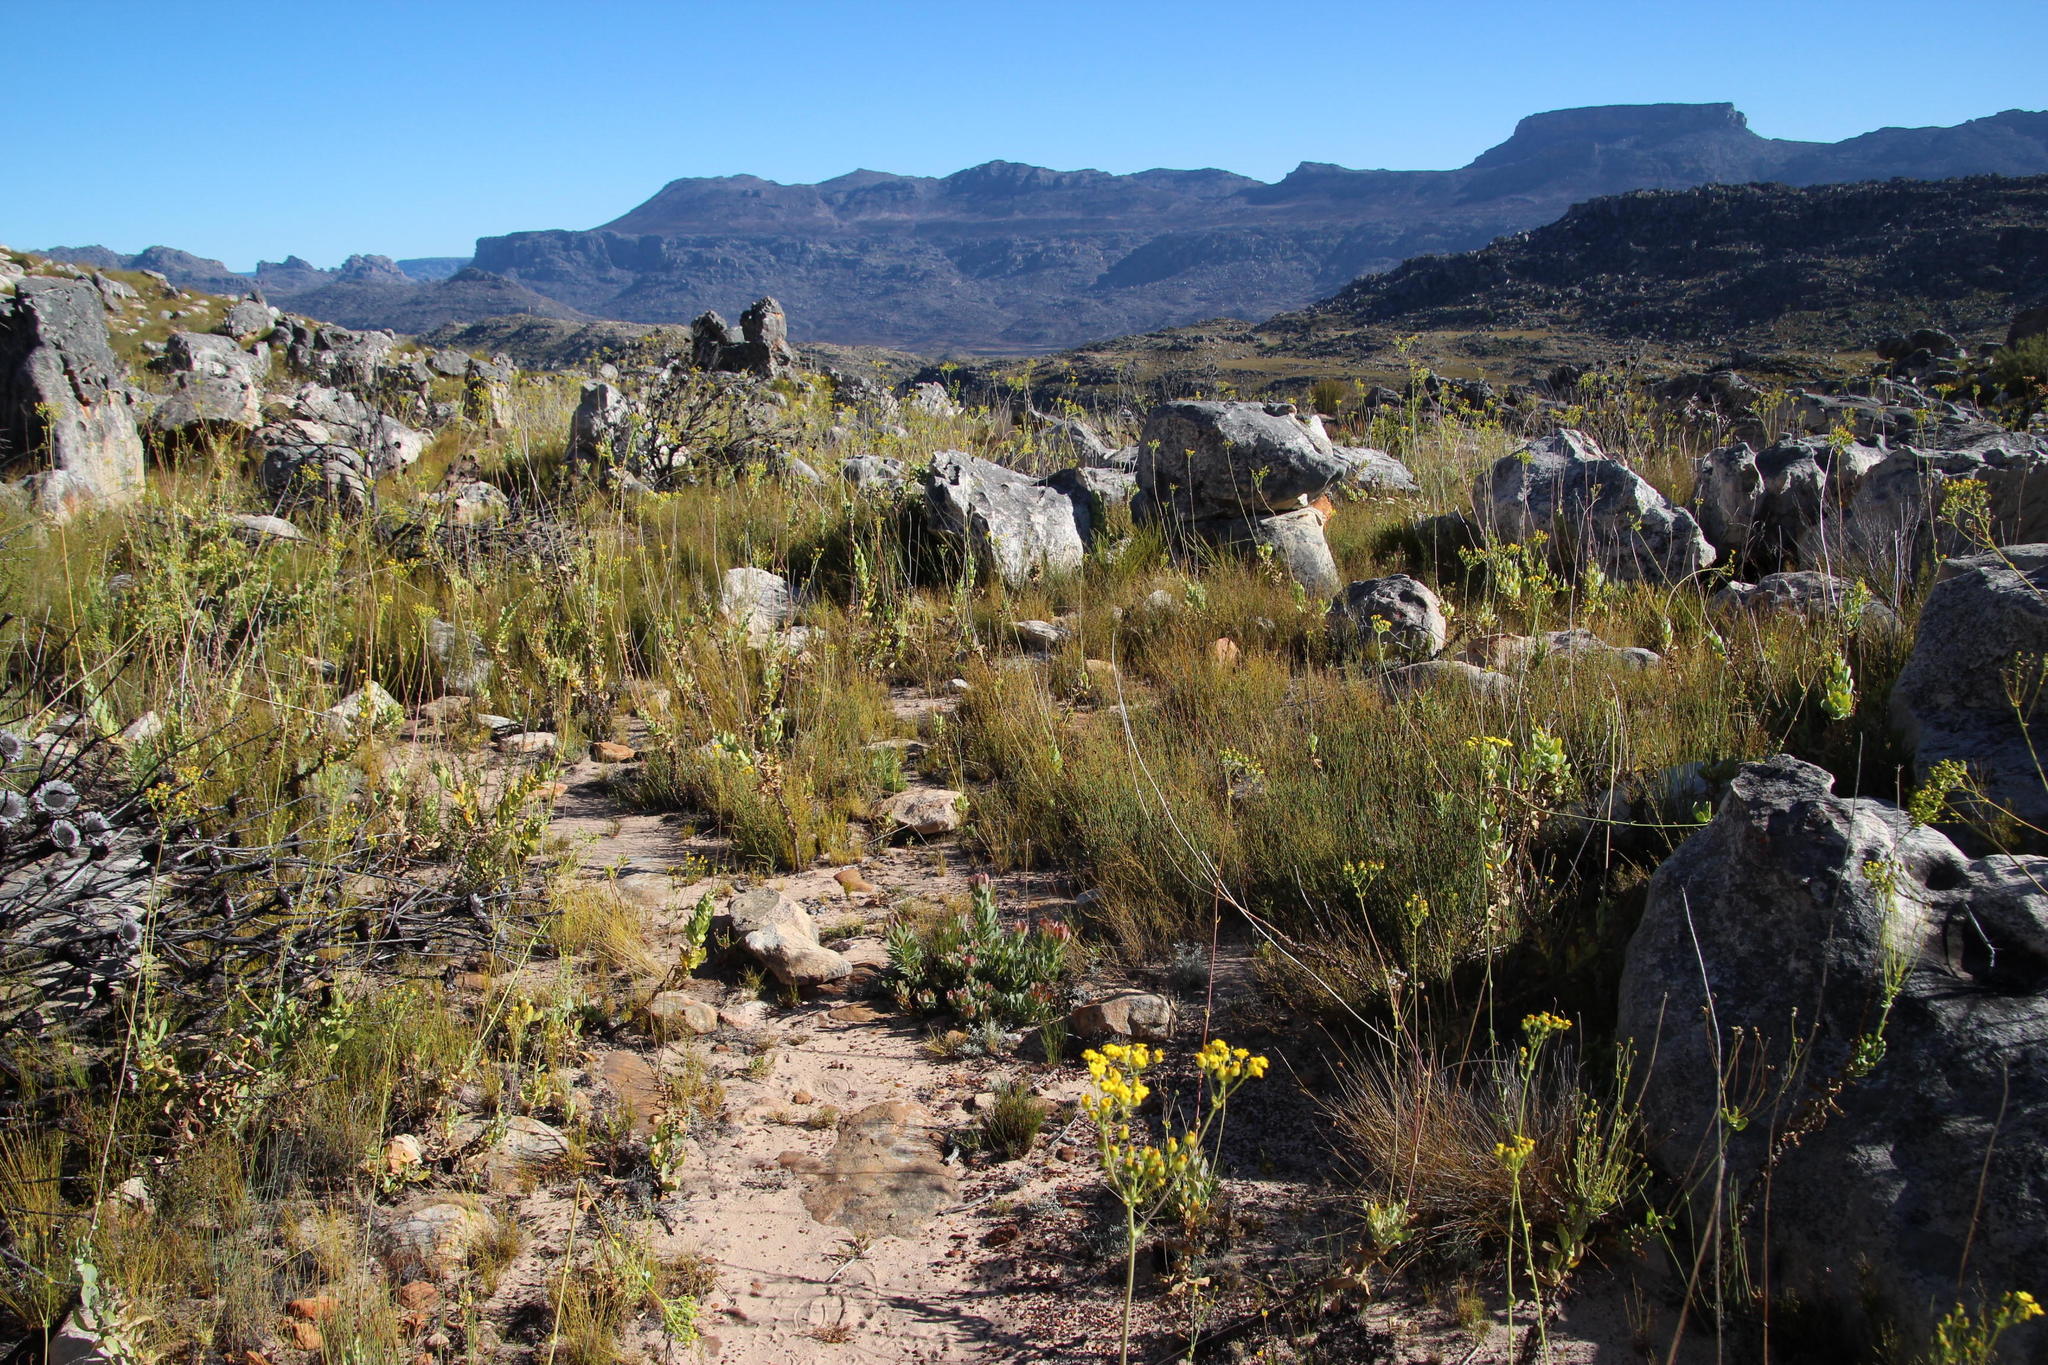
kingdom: Plantae
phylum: Tracheophyta
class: Magnoliopsida
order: Proteales
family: Proteaceae
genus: Leucadendron
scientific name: Leucadendron arcuatum
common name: Red-edge conebush
